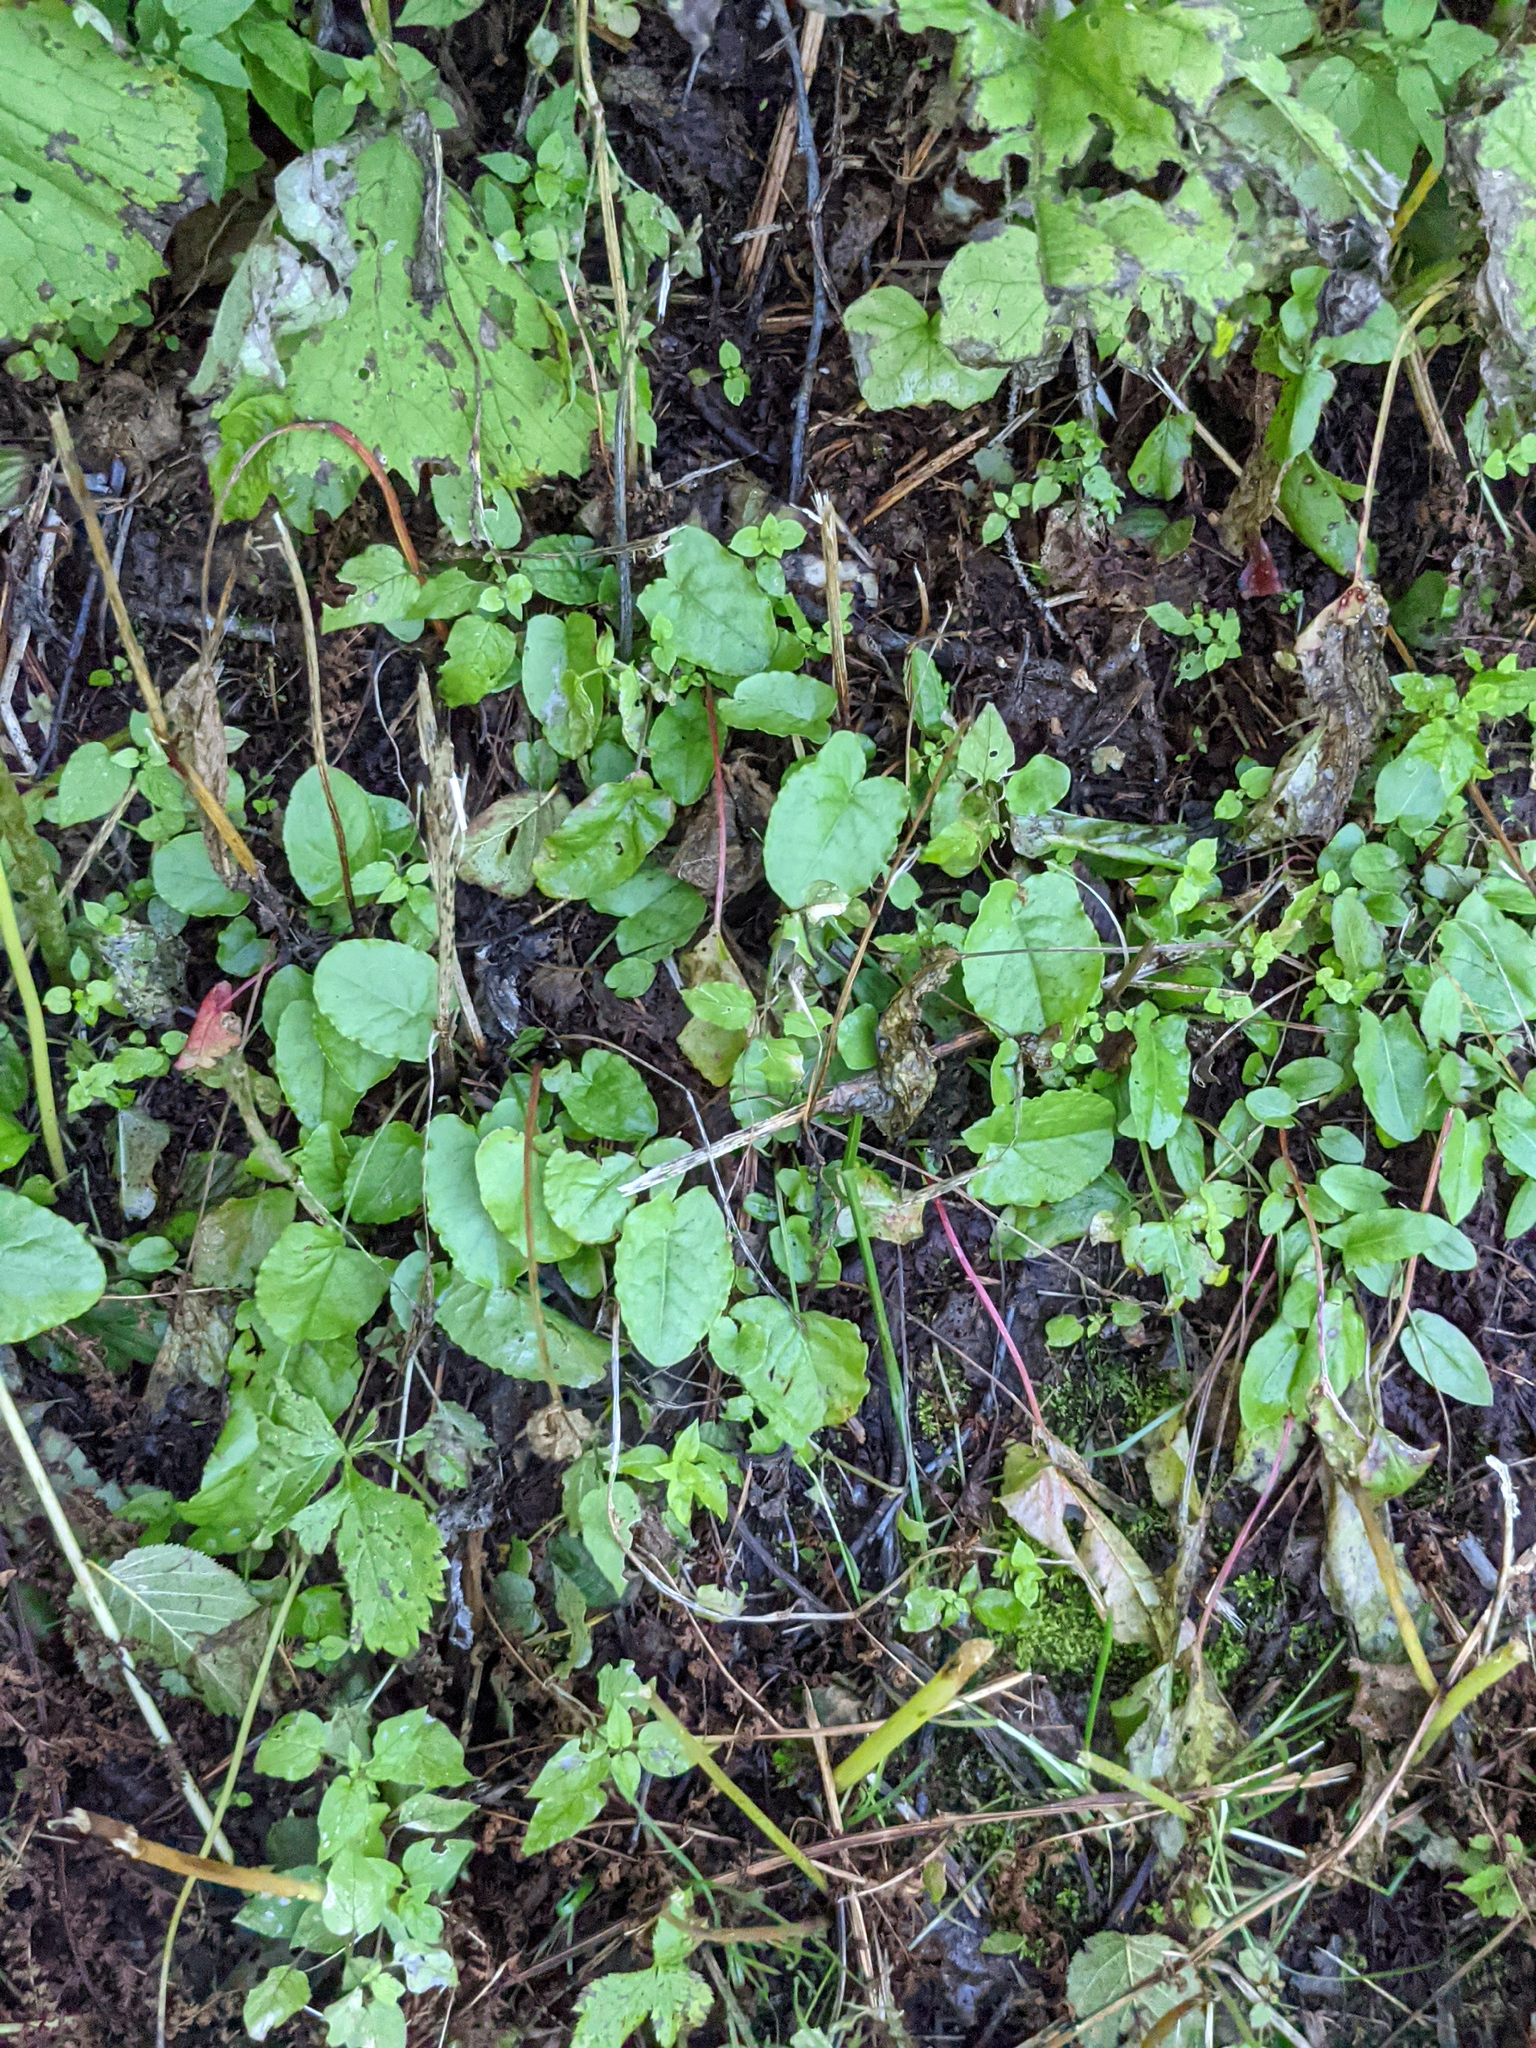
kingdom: Plantae
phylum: Tracheophyta
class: Magnoliopsida
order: Caryophyllales
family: Polygonaceae
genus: Rumex
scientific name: Rumex arifolius
